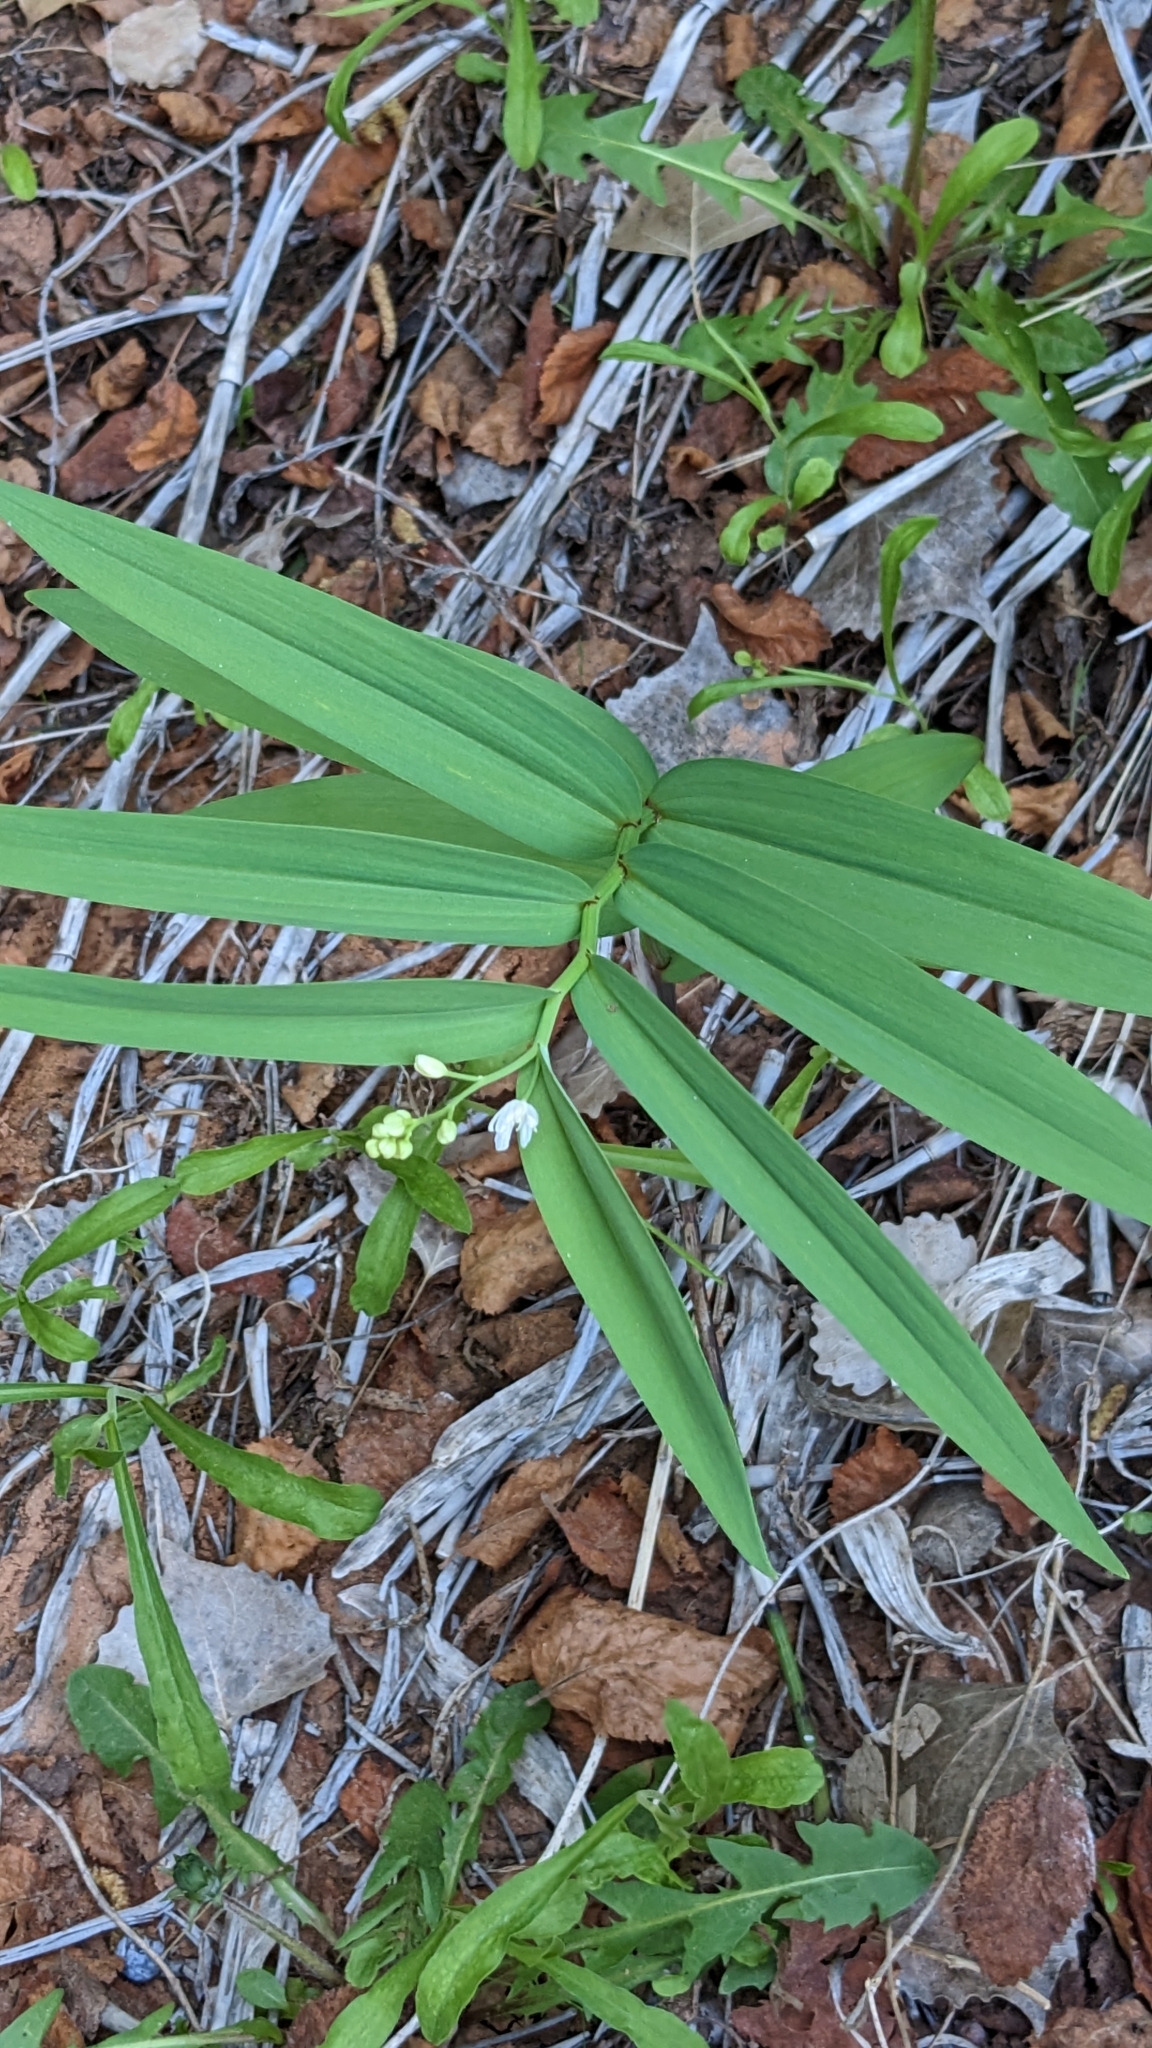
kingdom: Plantae
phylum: Tracheophyta
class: Liliopsida
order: Asparagales
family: Asparagaceae
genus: Maianthemum
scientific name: Maianthemum stellatum
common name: Little false solomon's seal
